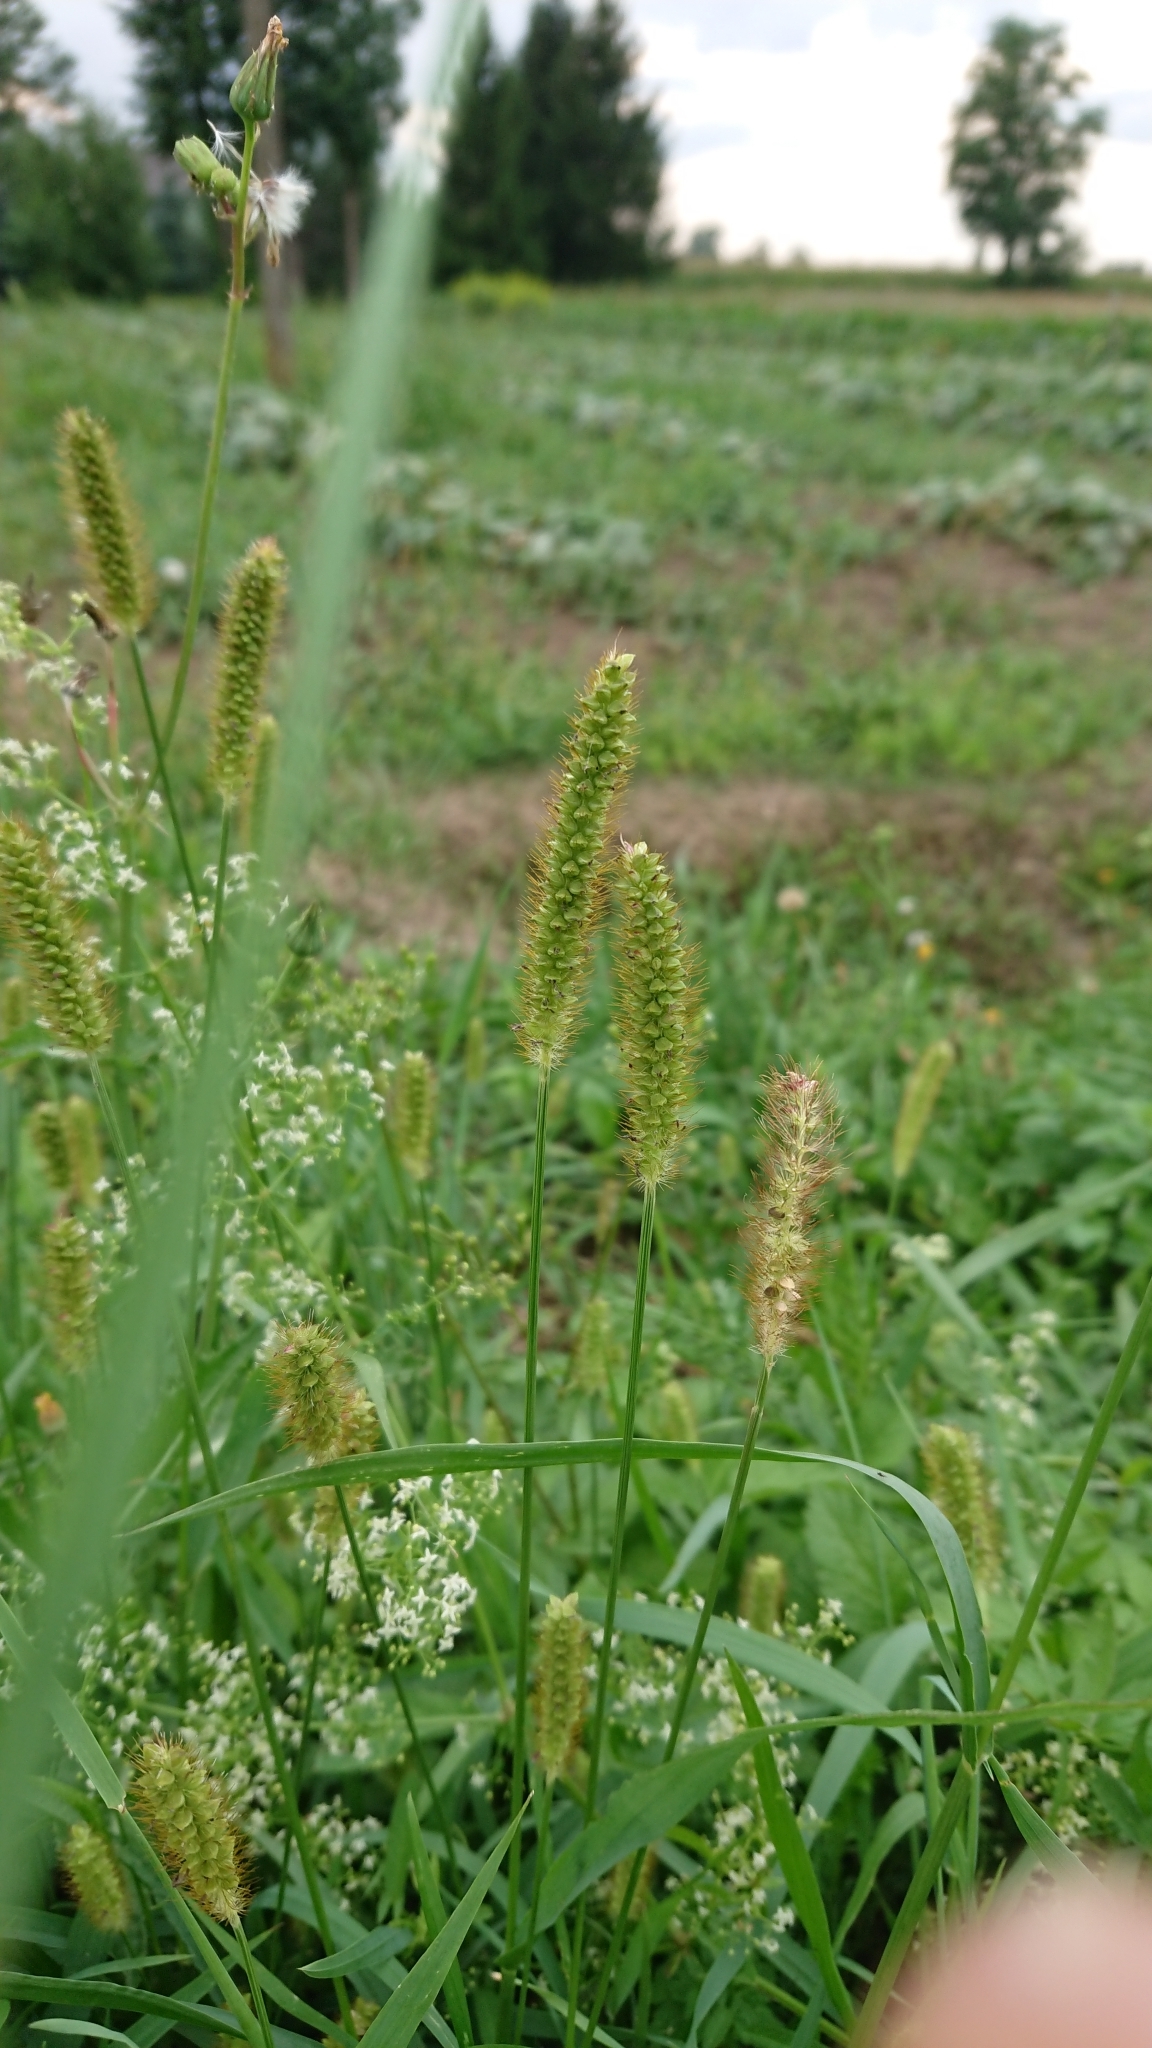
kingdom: Plantae
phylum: Tracheophyta
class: Liliopsida
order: Poales
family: Poaceae
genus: Setaria
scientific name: Setaria pumila
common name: Yellow bristle-grass
